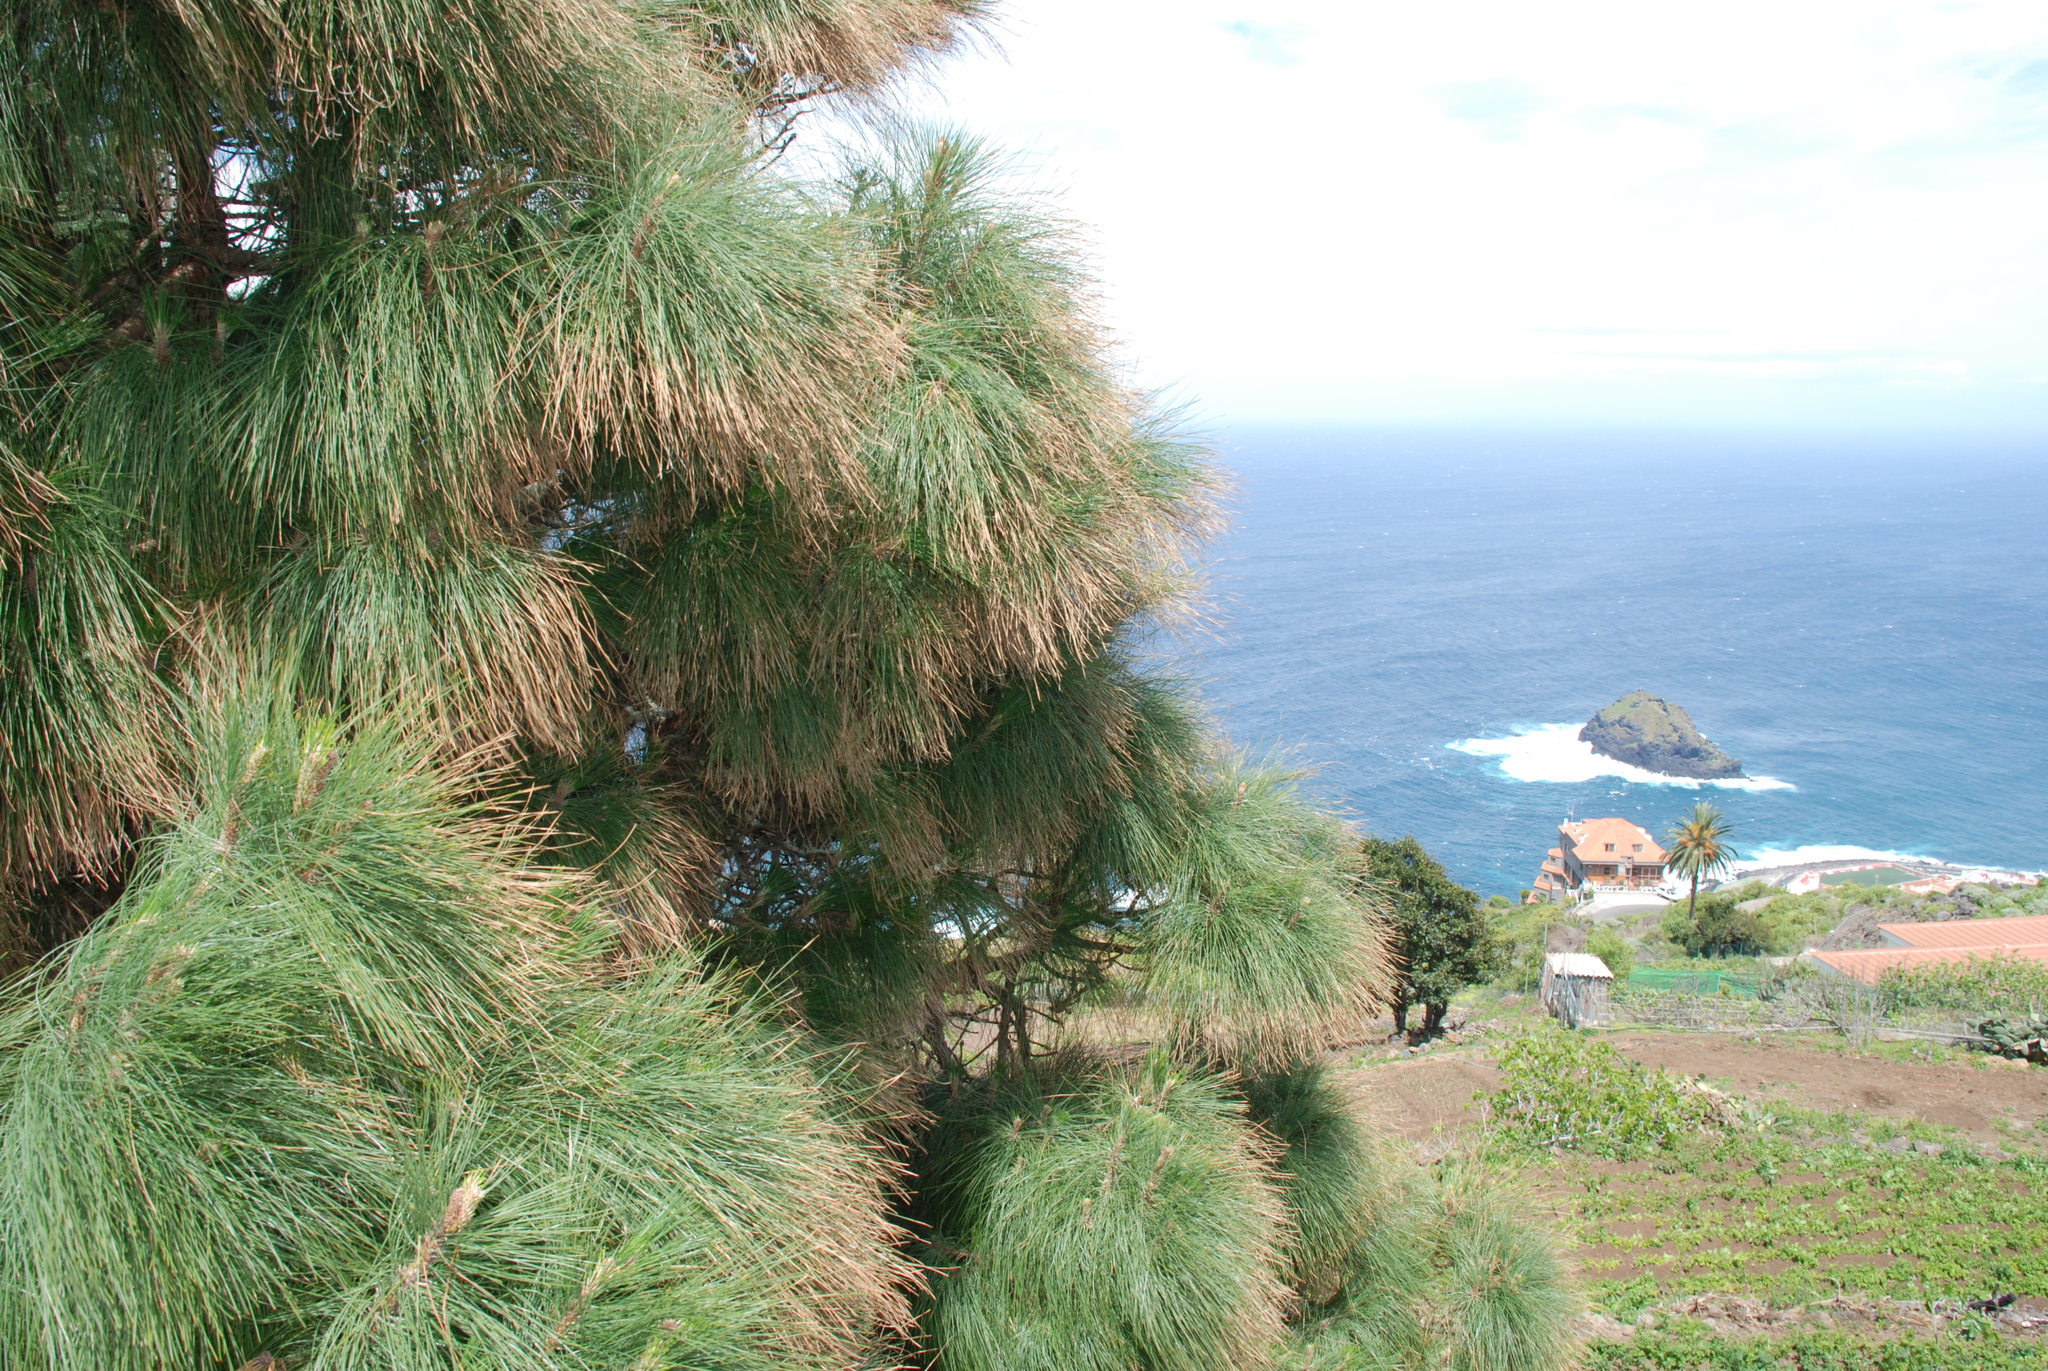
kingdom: Plantae
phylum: Tracheophyta
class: Pinopsida
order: Pinales
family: Pinaceae
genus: Pinus
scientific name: Pinus canariensis
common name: Canary islands pine
